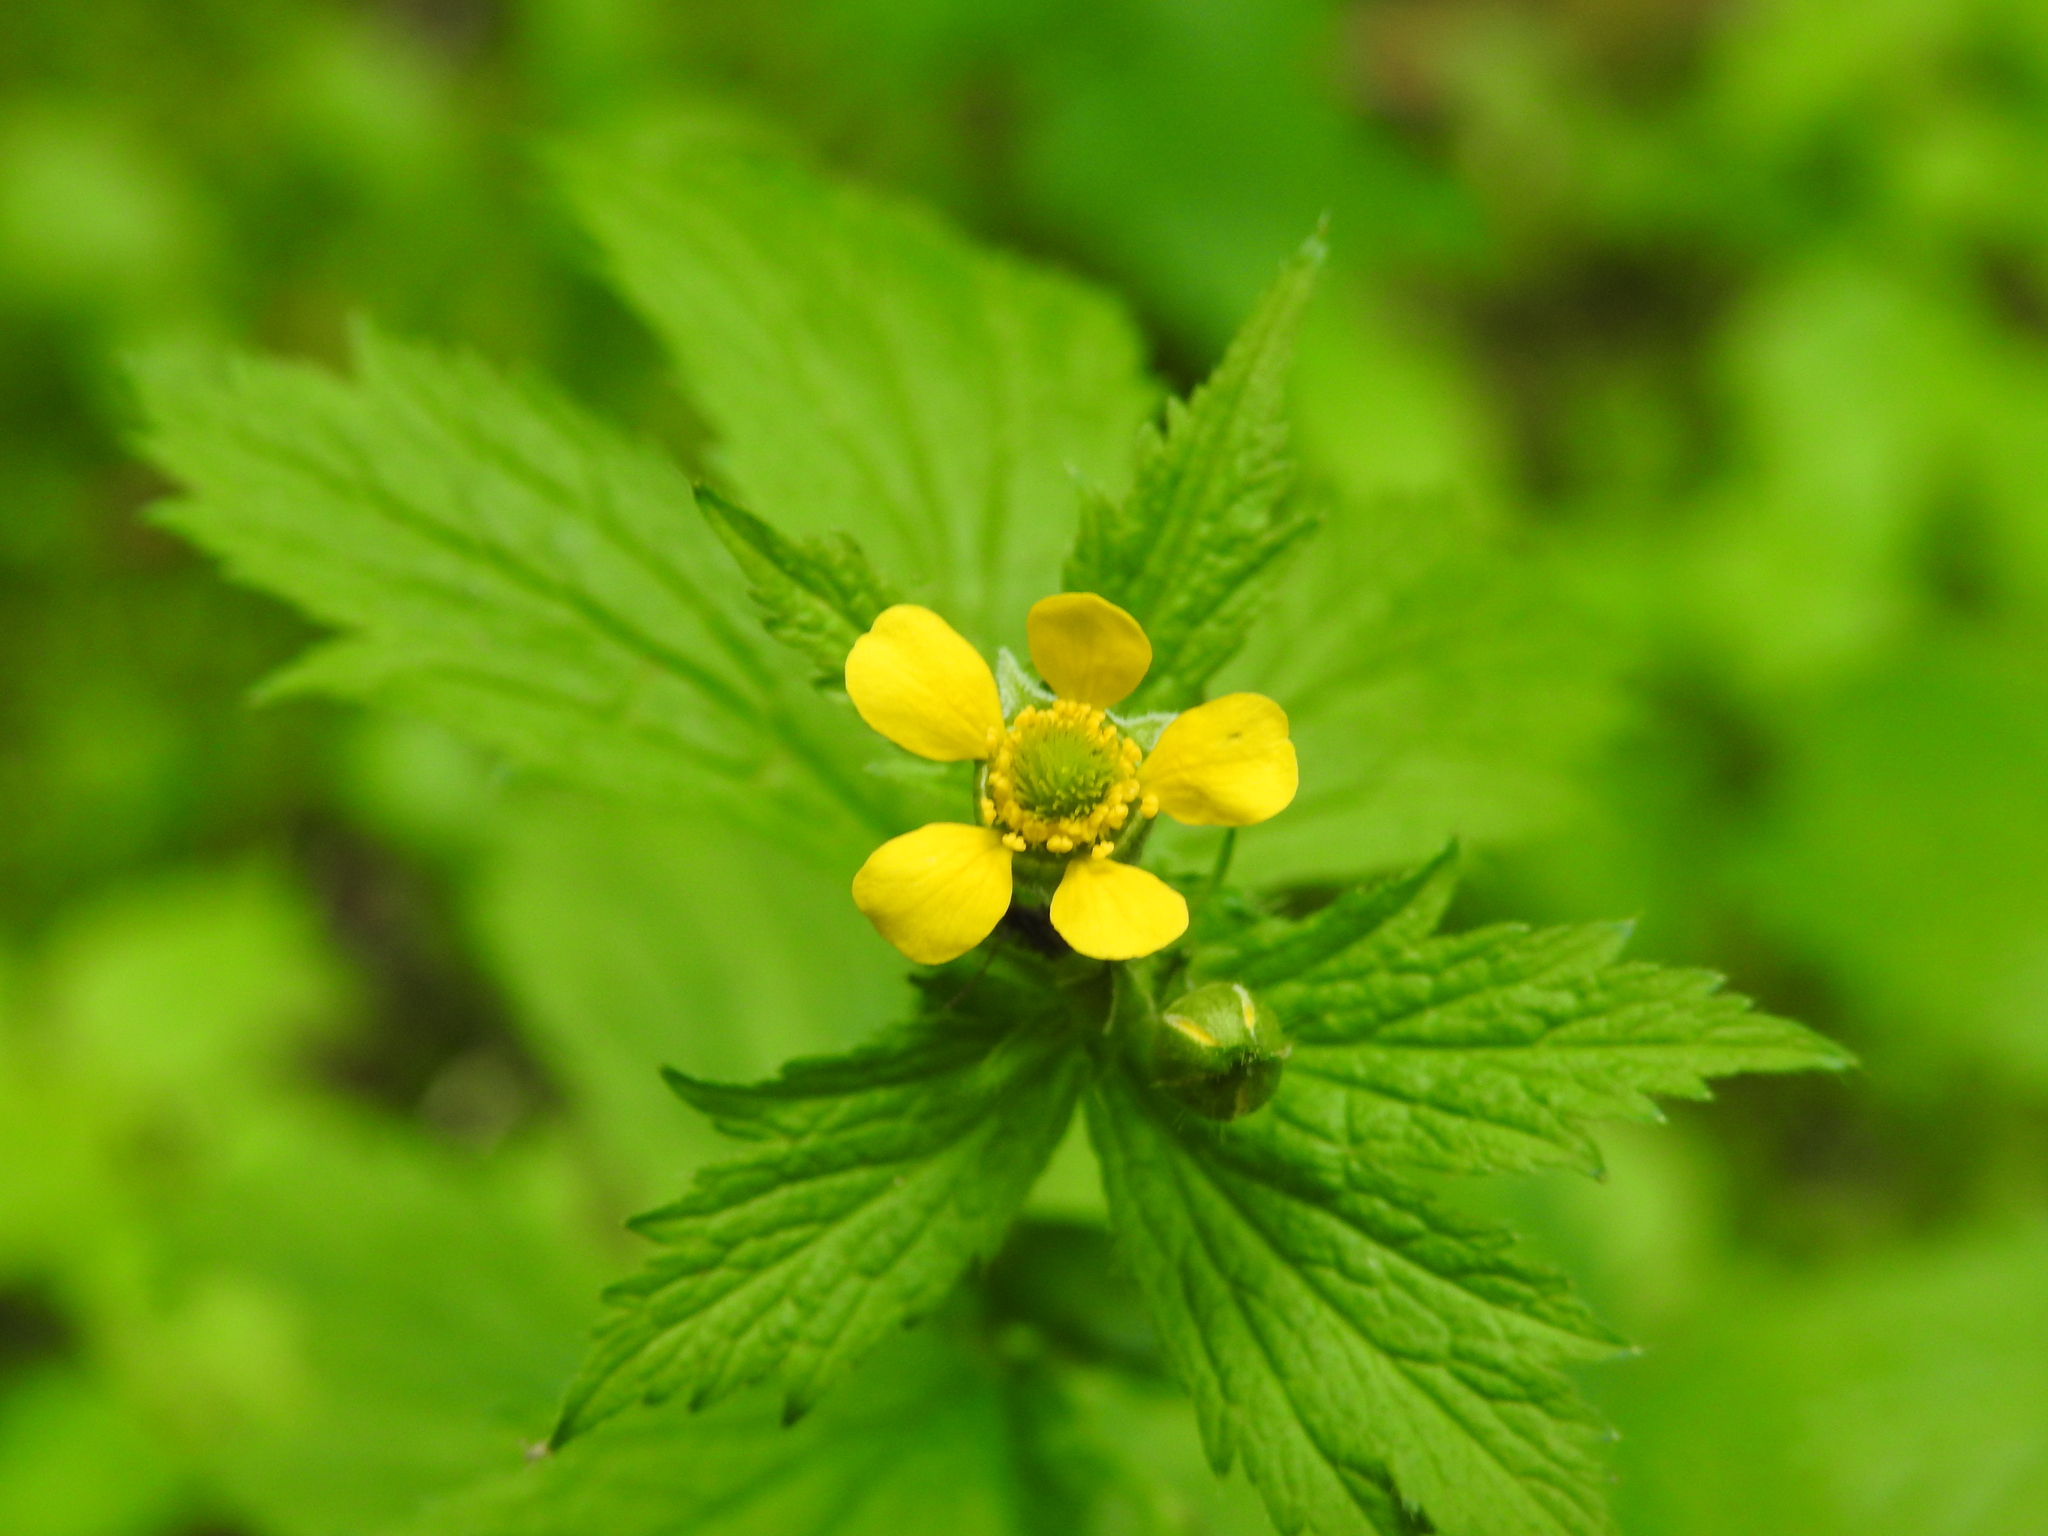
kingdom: Plantae
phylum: Tracheophyta
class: Magnoliopsida
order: Rosales
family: Rosaceae
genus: Geum
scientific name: Geum macrophyllum
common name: Large-leaved avens
